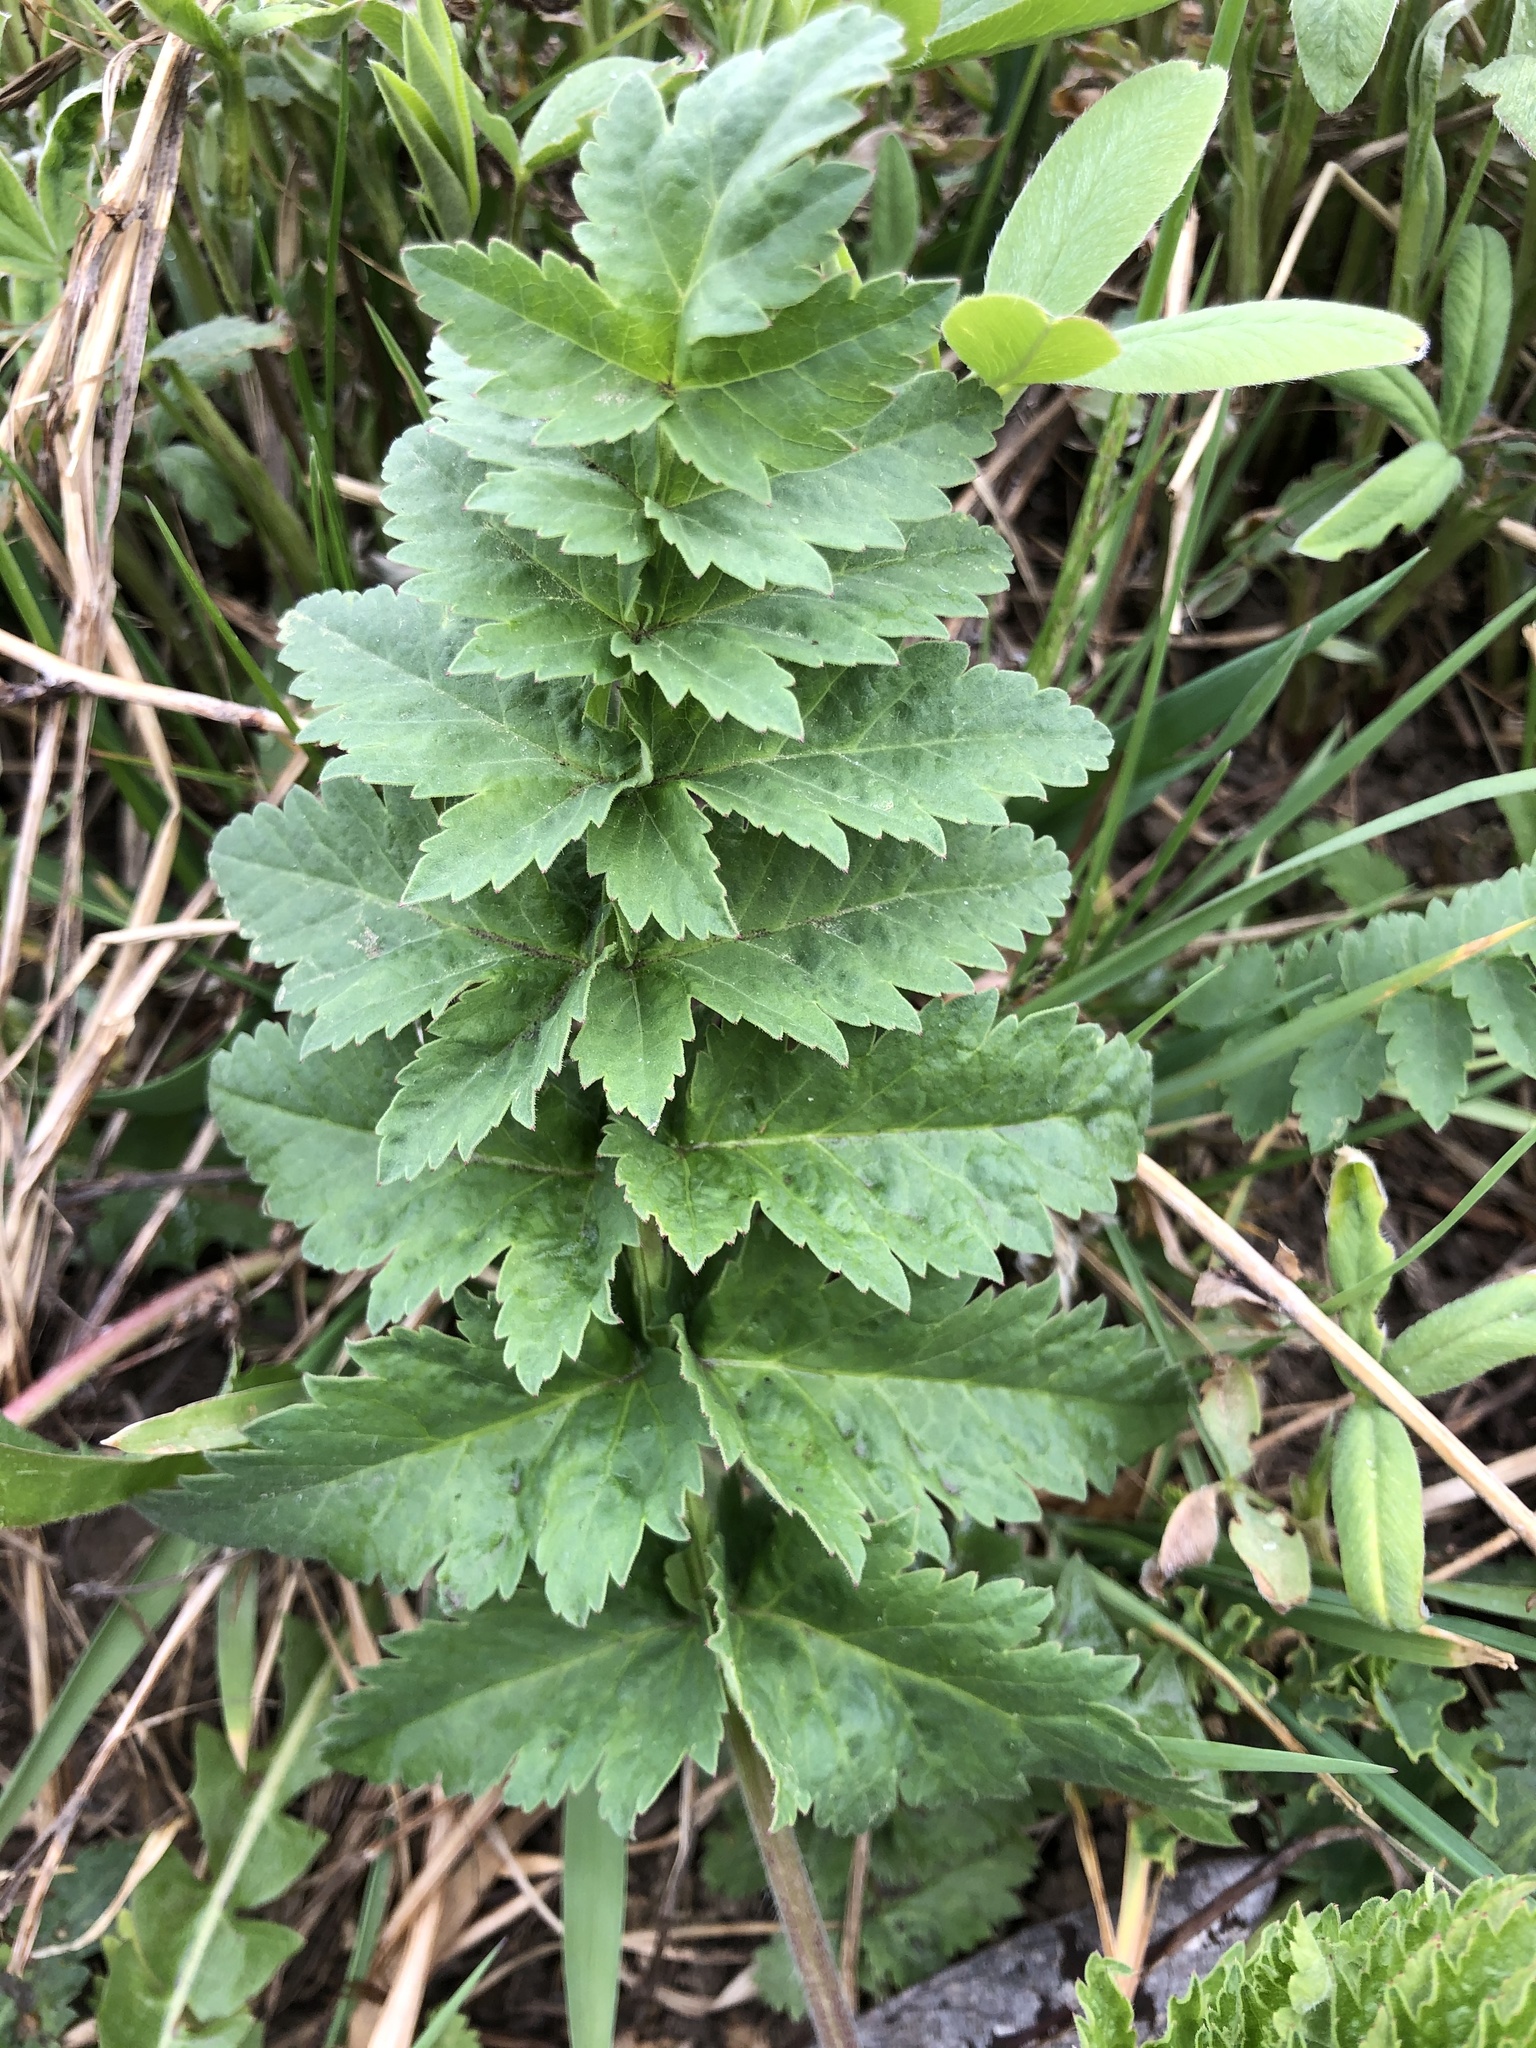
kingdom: Plantae
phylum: Tracheophyta
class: Magnoliopsida
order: Apiales
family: Apiaceae
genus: Pastinaca
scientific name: Pastinaca sativa
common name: Wild parsnip
